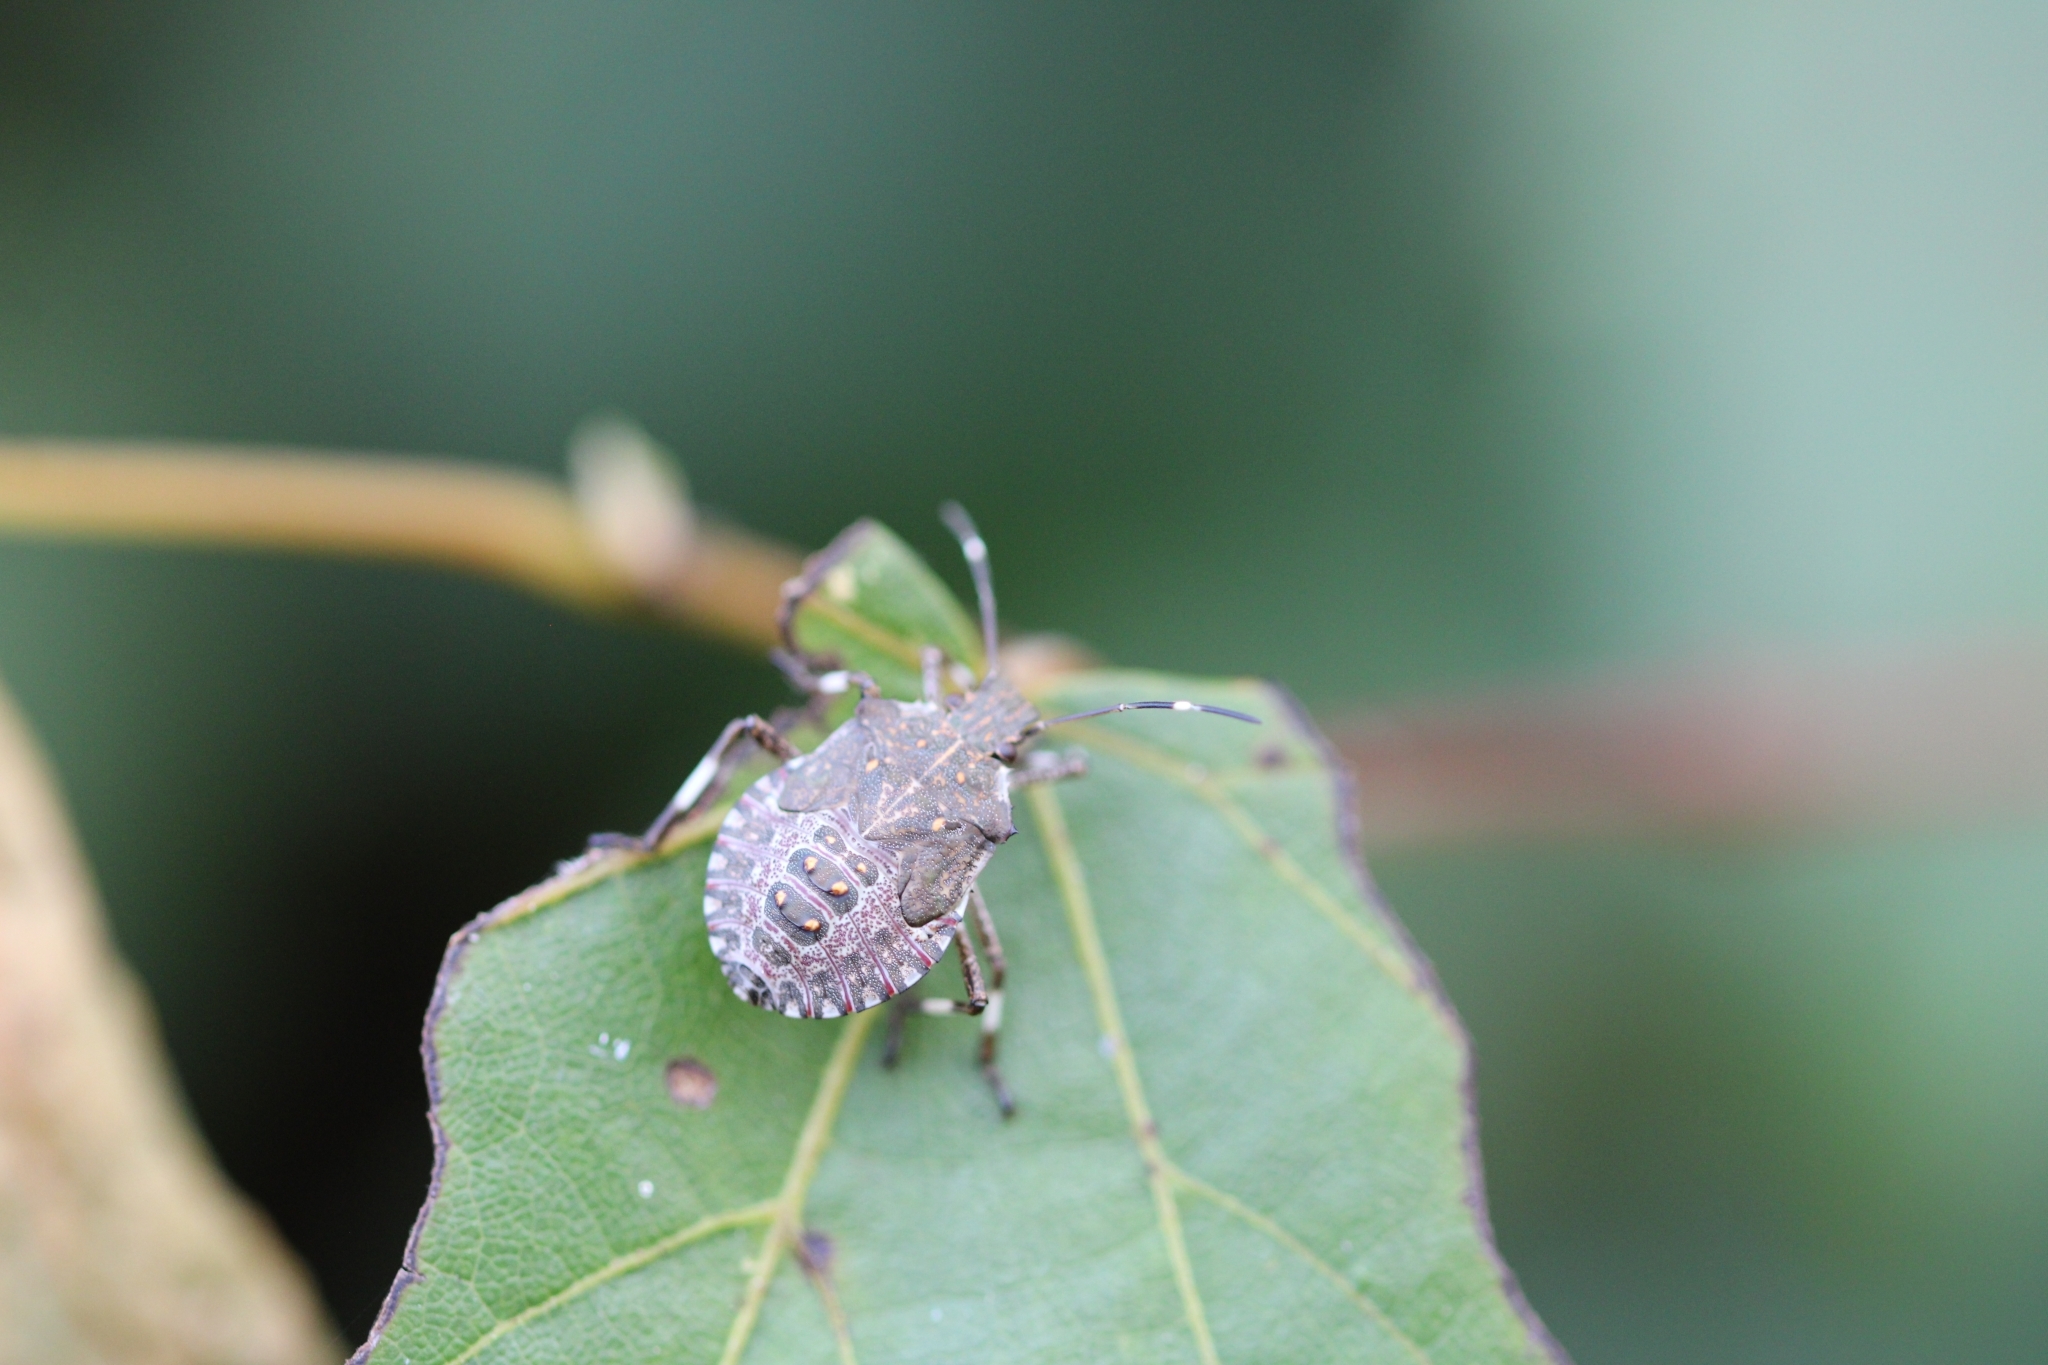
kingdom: Animalia
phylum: Arthropoda
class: Insecta
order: Hemiptera
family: Pentatomidae
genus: Halyomorpha
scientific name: Halyomorpha halys
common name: Brown marmorated stink bug
